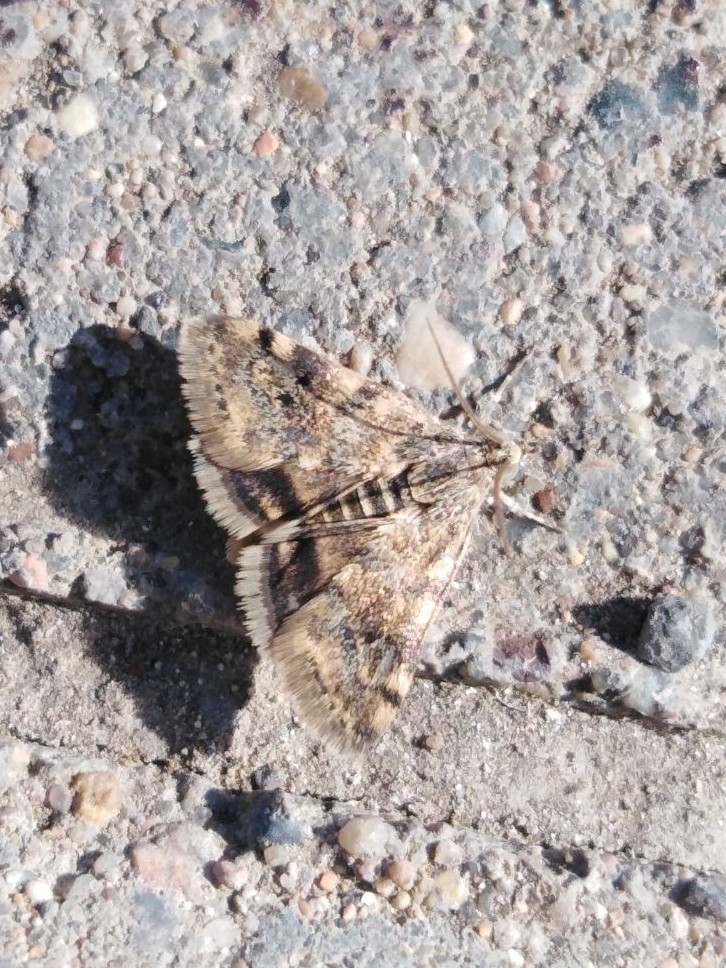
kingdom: Animalia
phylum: Arthropoda
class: Insecta
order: Lepidoptera
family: Crambidae
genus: Noctuelia
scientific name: Noctuelia Aporodes floralis
